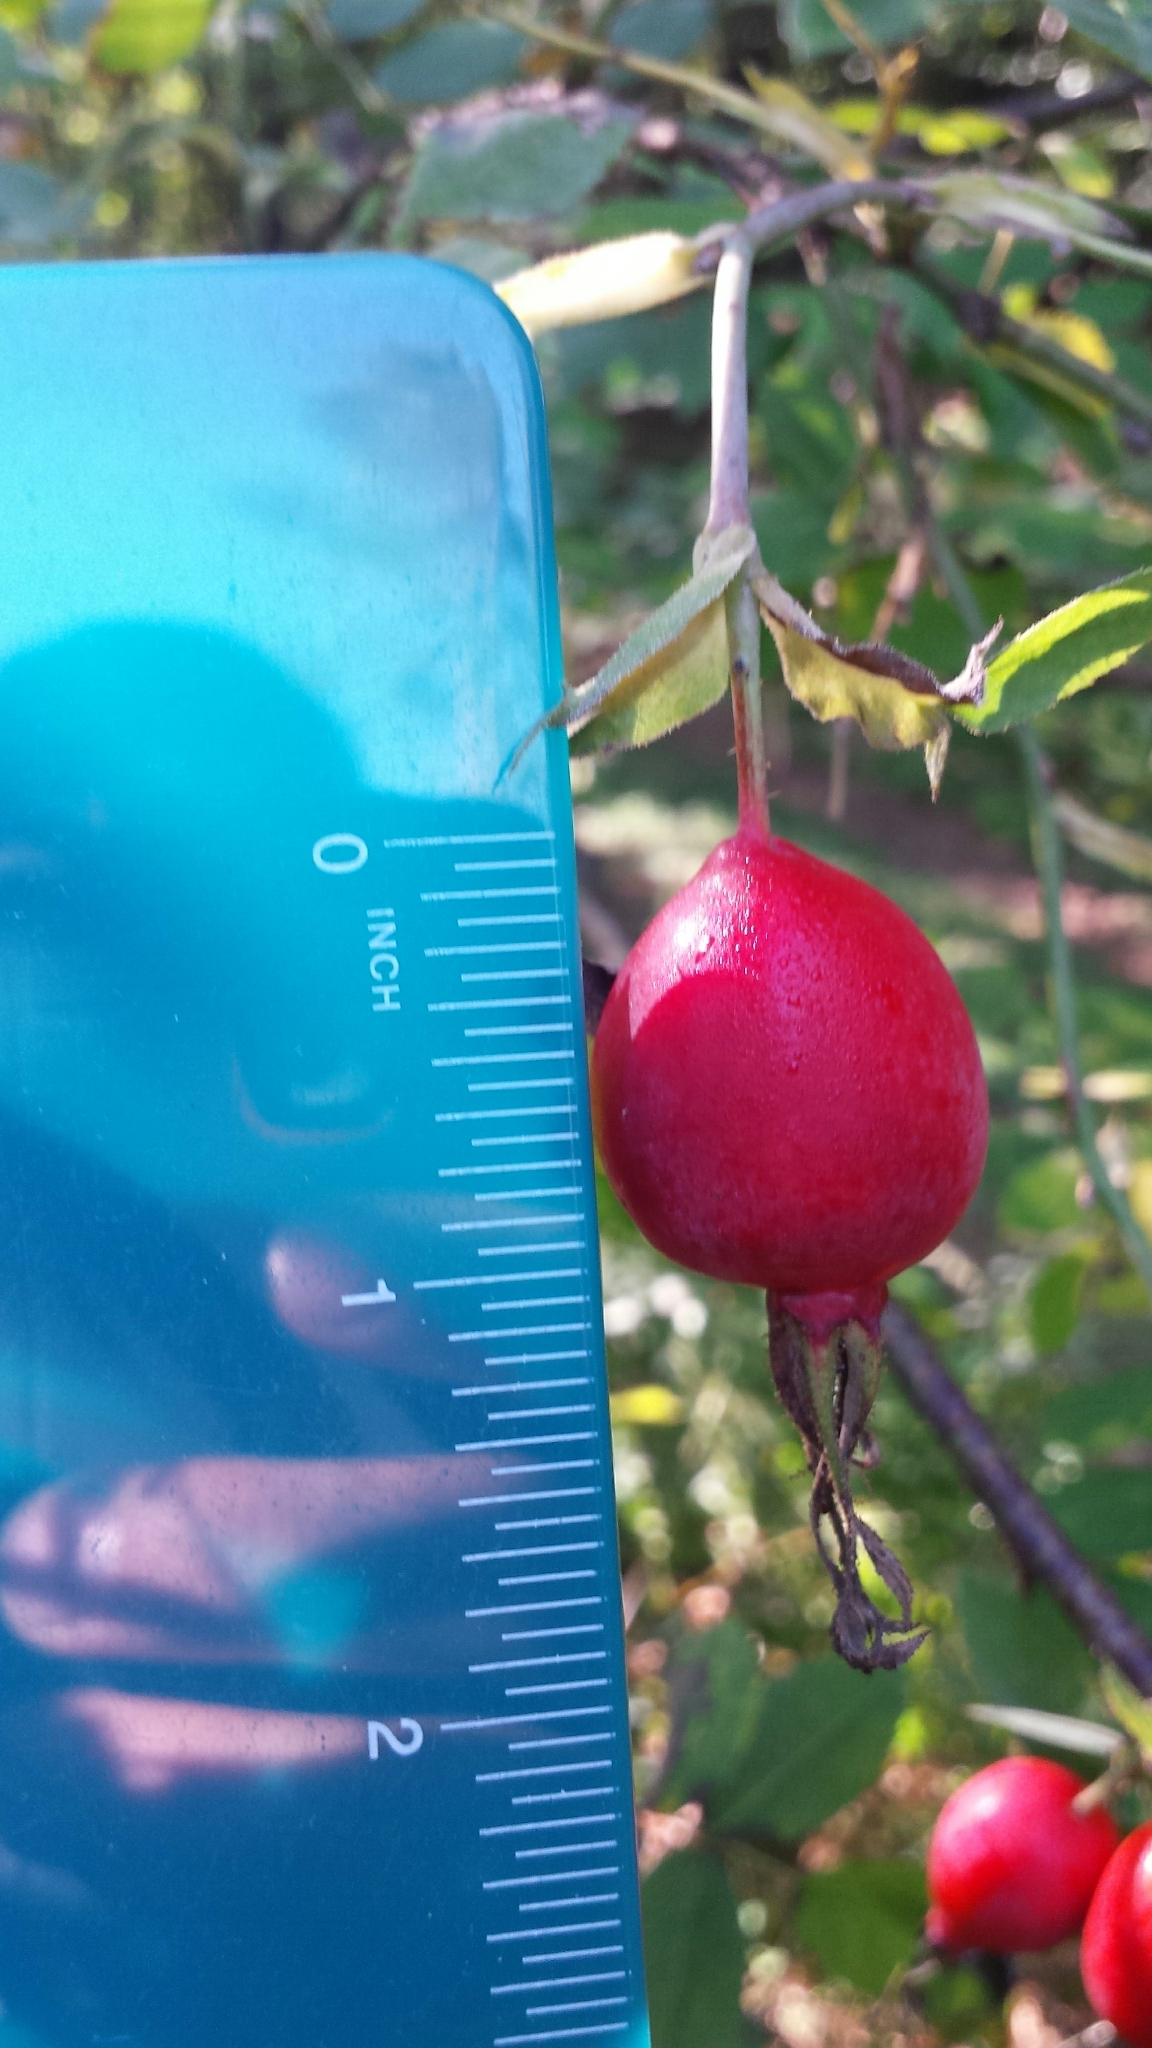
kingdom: Plantae
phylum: Tracheophyta
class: Magnoliopsida
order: Rosales
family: Rosaceae
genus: Rosa
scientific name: Rosa sherardii
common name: Sherard's downy rose
